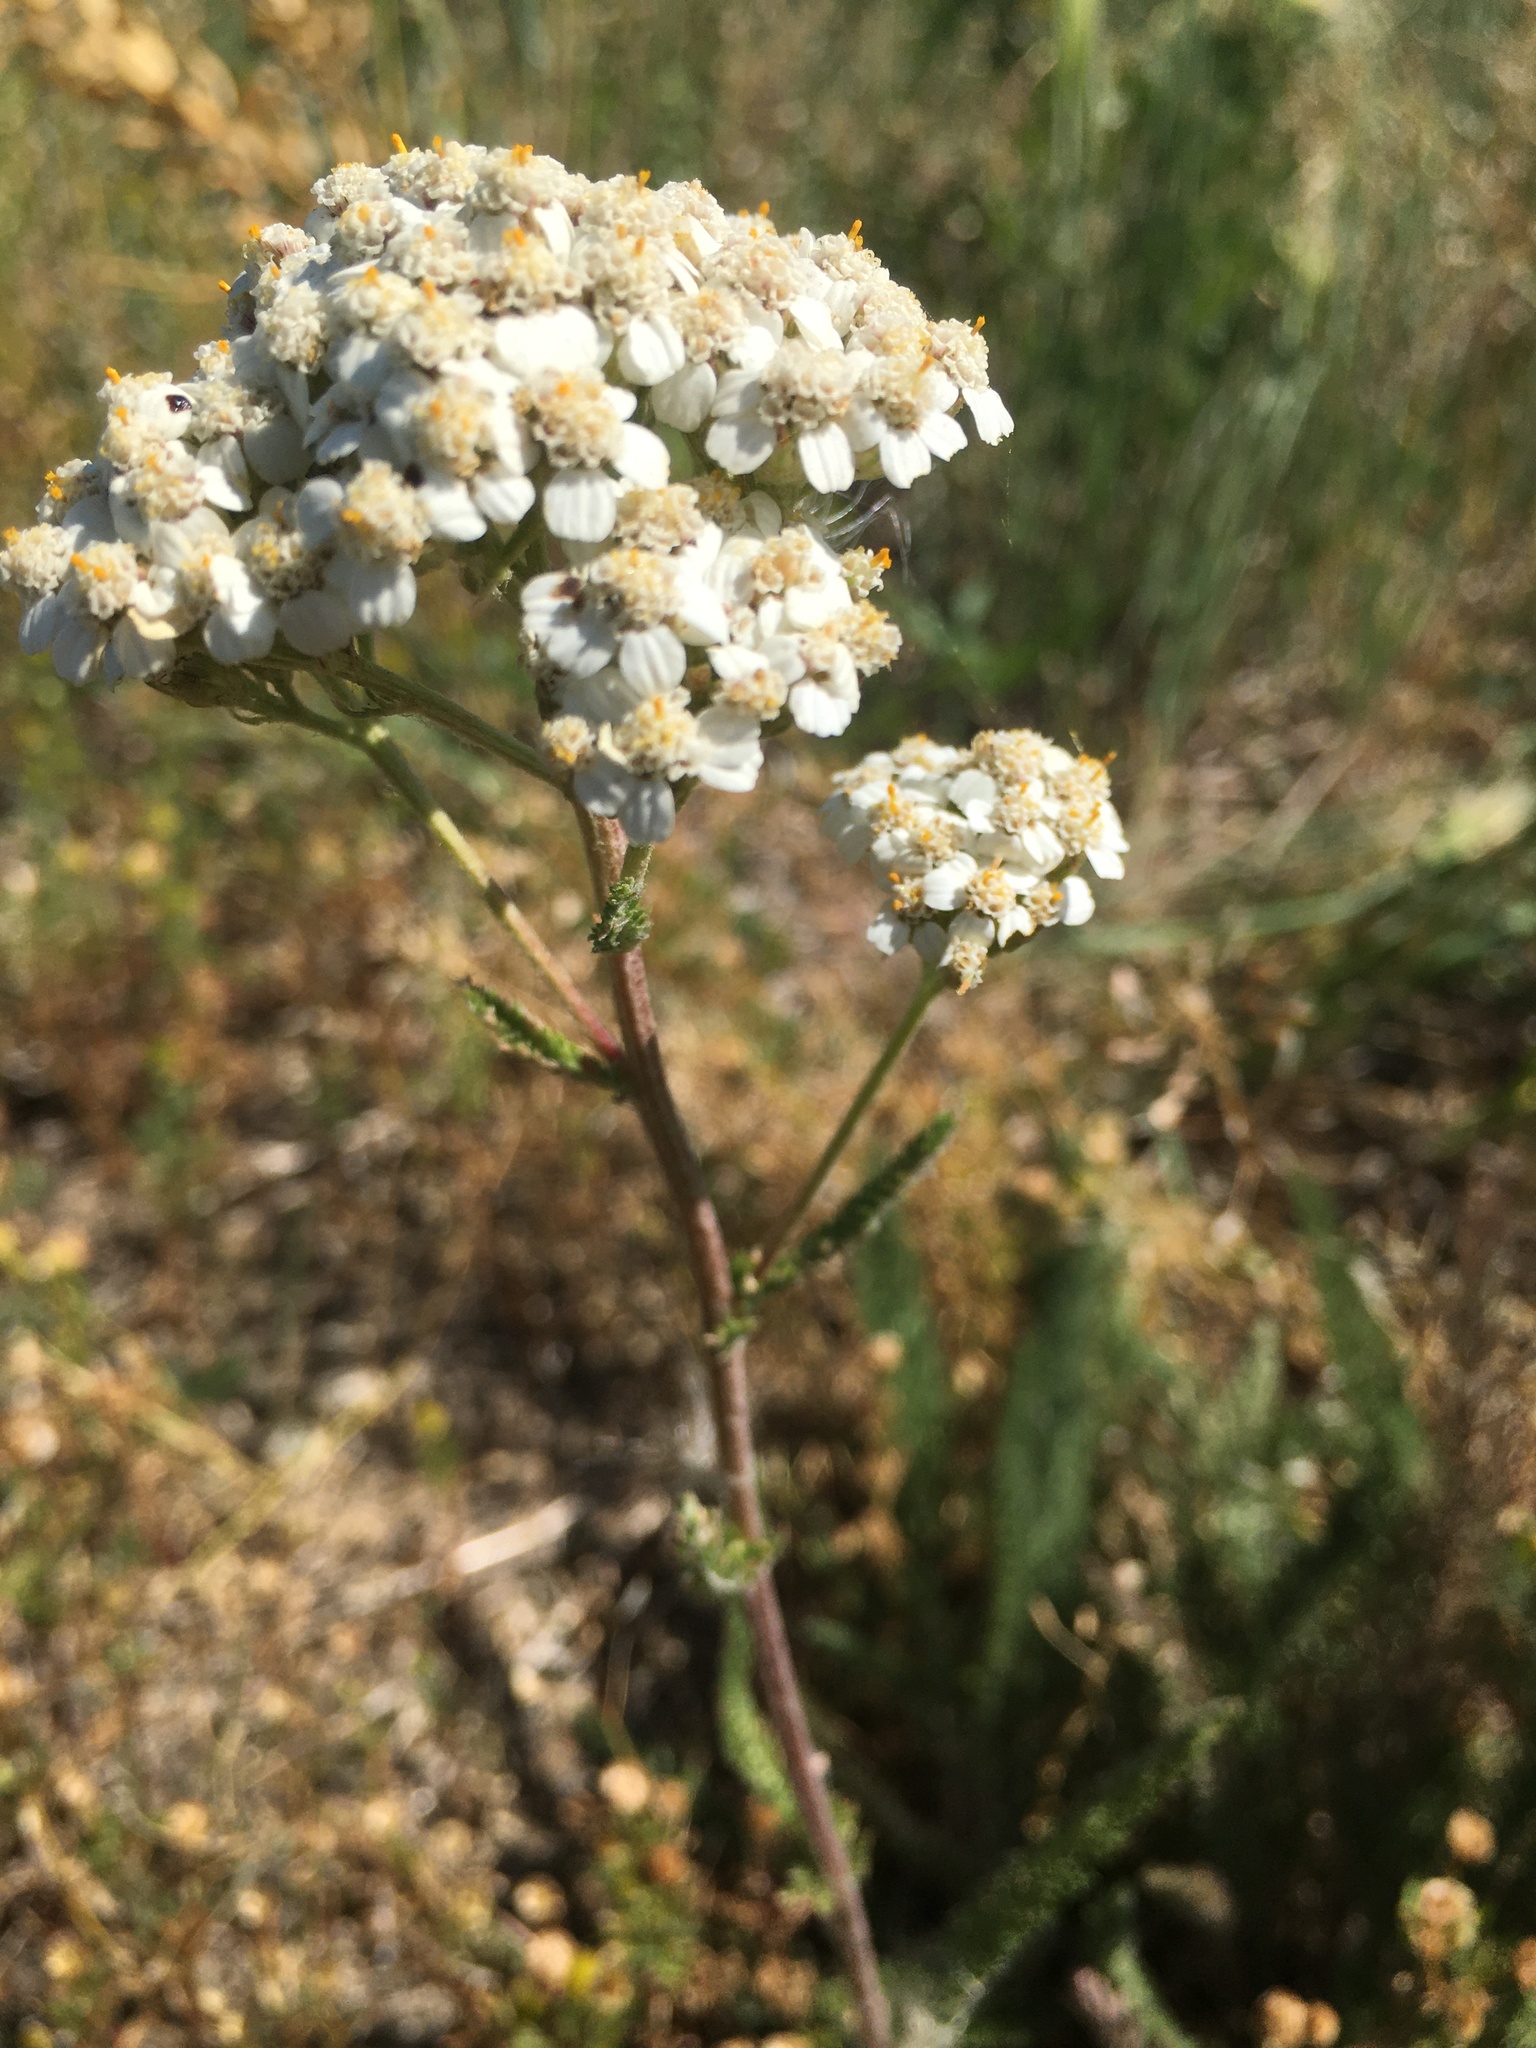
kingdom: Plantae
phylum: Tracheophyta
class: Magnoliopsida
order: Asterales
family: Asteraceae
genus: Achillea
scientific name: Achillea millefolium
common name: Yarrow
